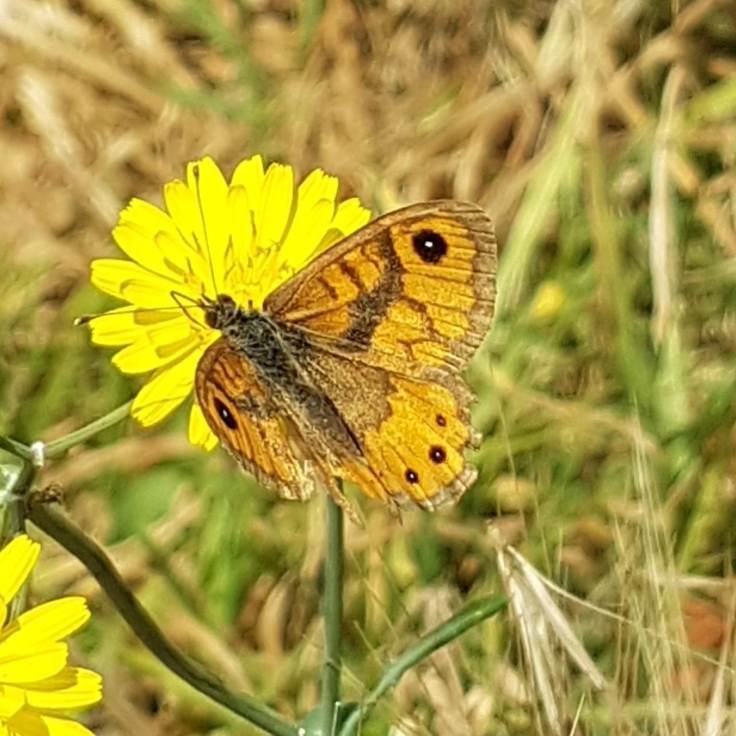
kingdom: Animalia
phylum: Arthropoda
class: Insecta
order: Lepidoptera
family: Nymphalidae
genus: Pararge
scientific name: Pararge Lasiommata megera
